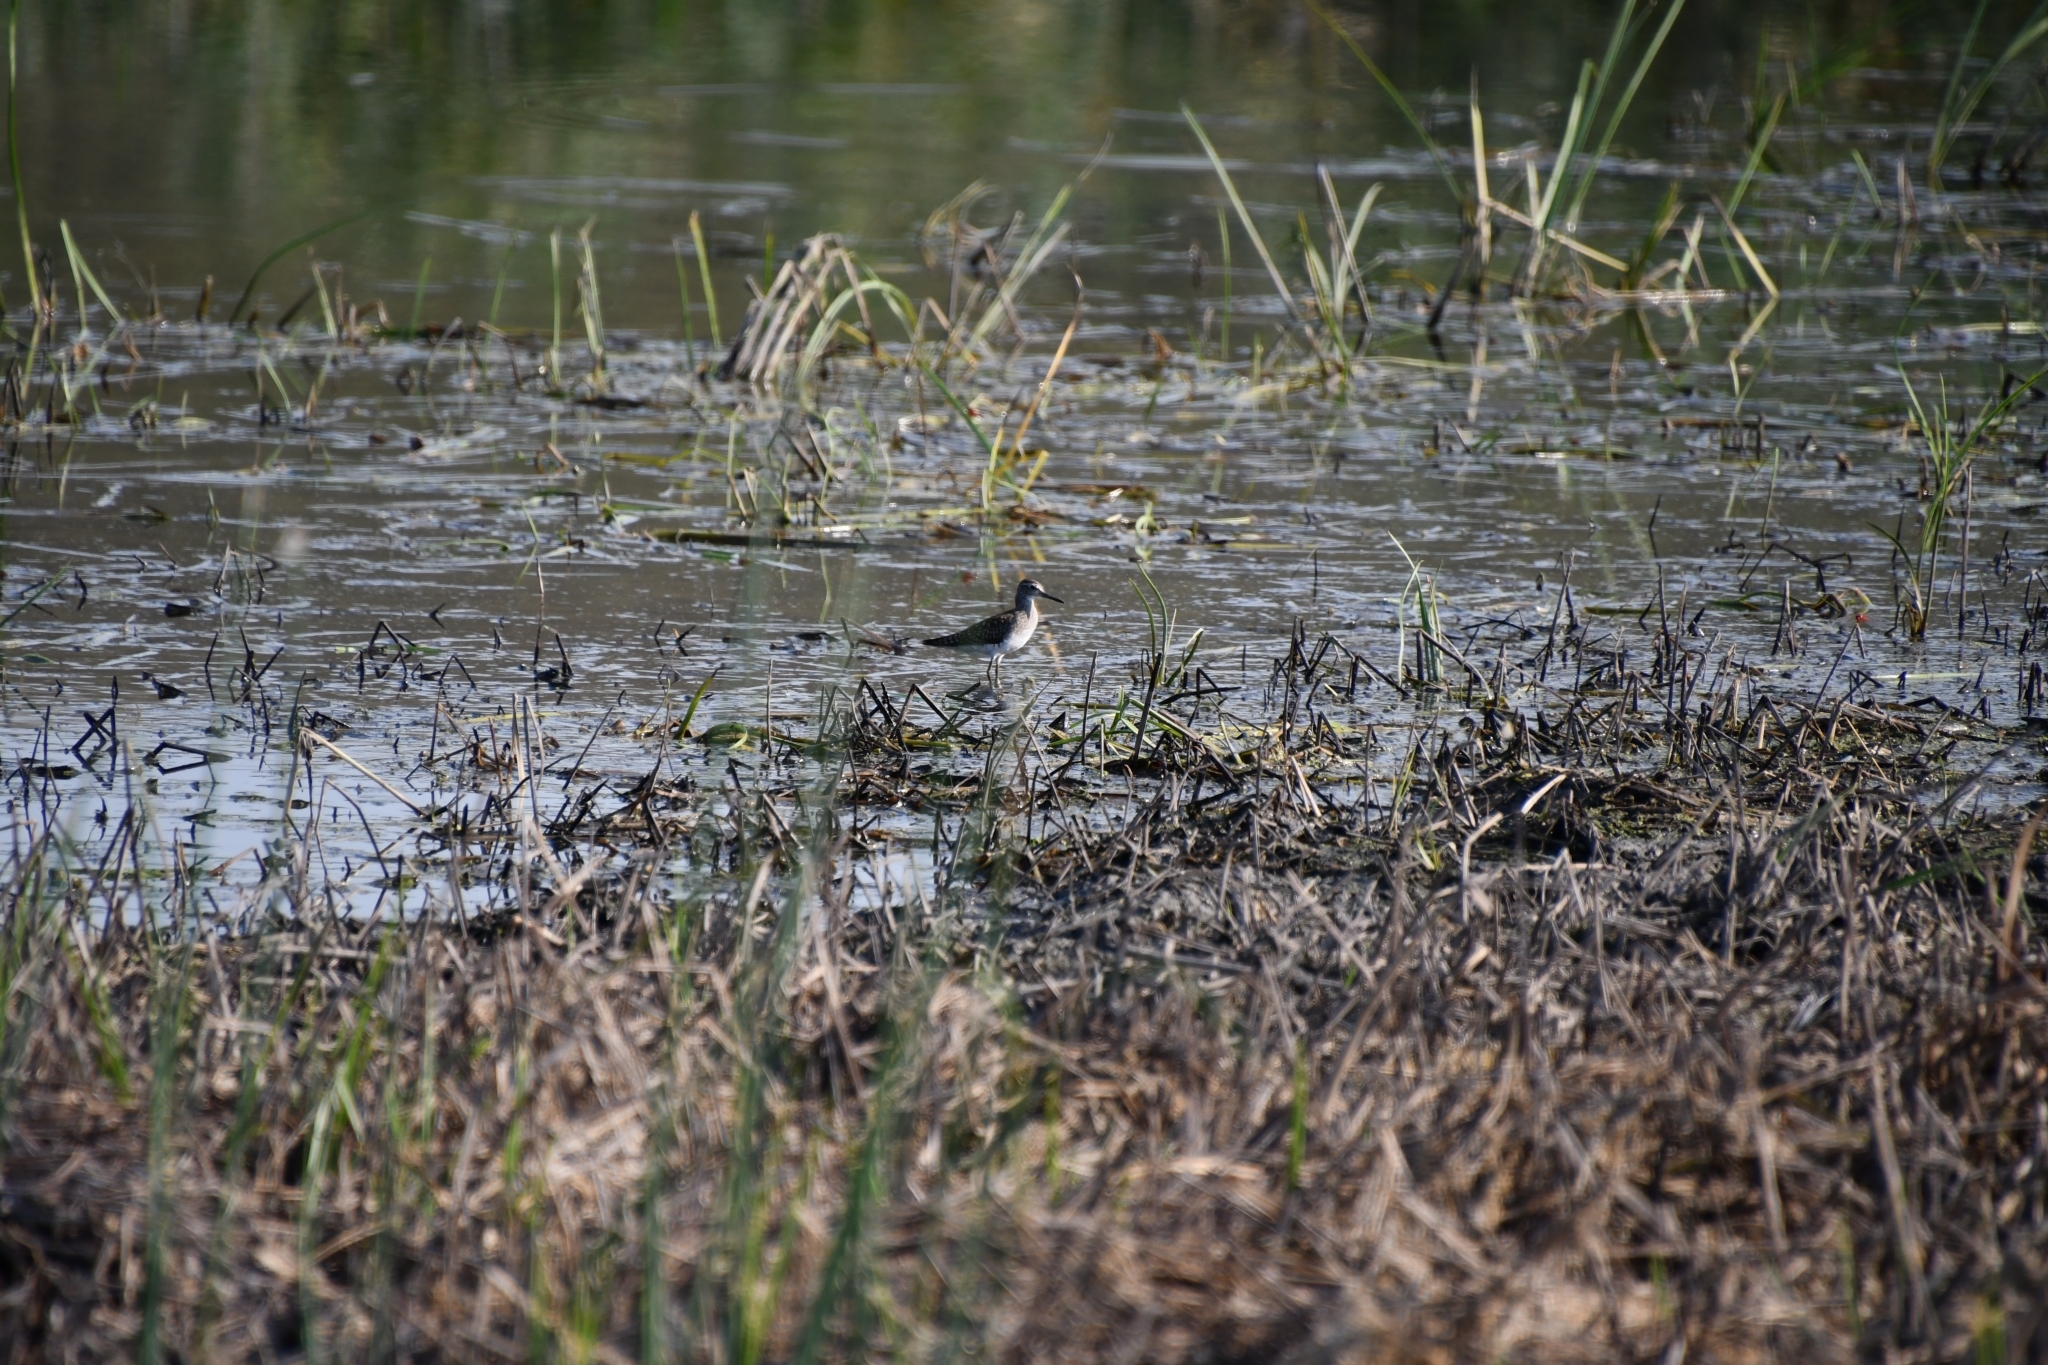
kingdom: Animalia
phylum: Chordata
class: Aves
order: Charadriiformes
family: Scolopacidae
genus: Tringa
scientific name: Tringa glareola
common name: Wood sandpiper
